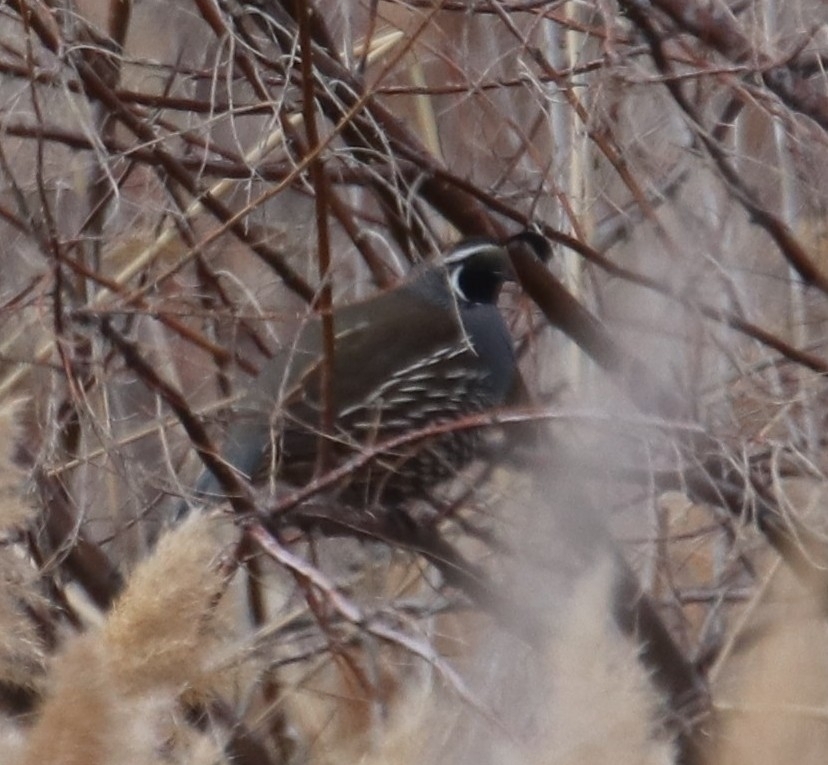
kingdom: Animalia
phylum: Chordata
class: Aves
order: Galliformes
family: Odontophoridae
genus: Callipepla
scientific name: Callipepla californica
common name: California quail
